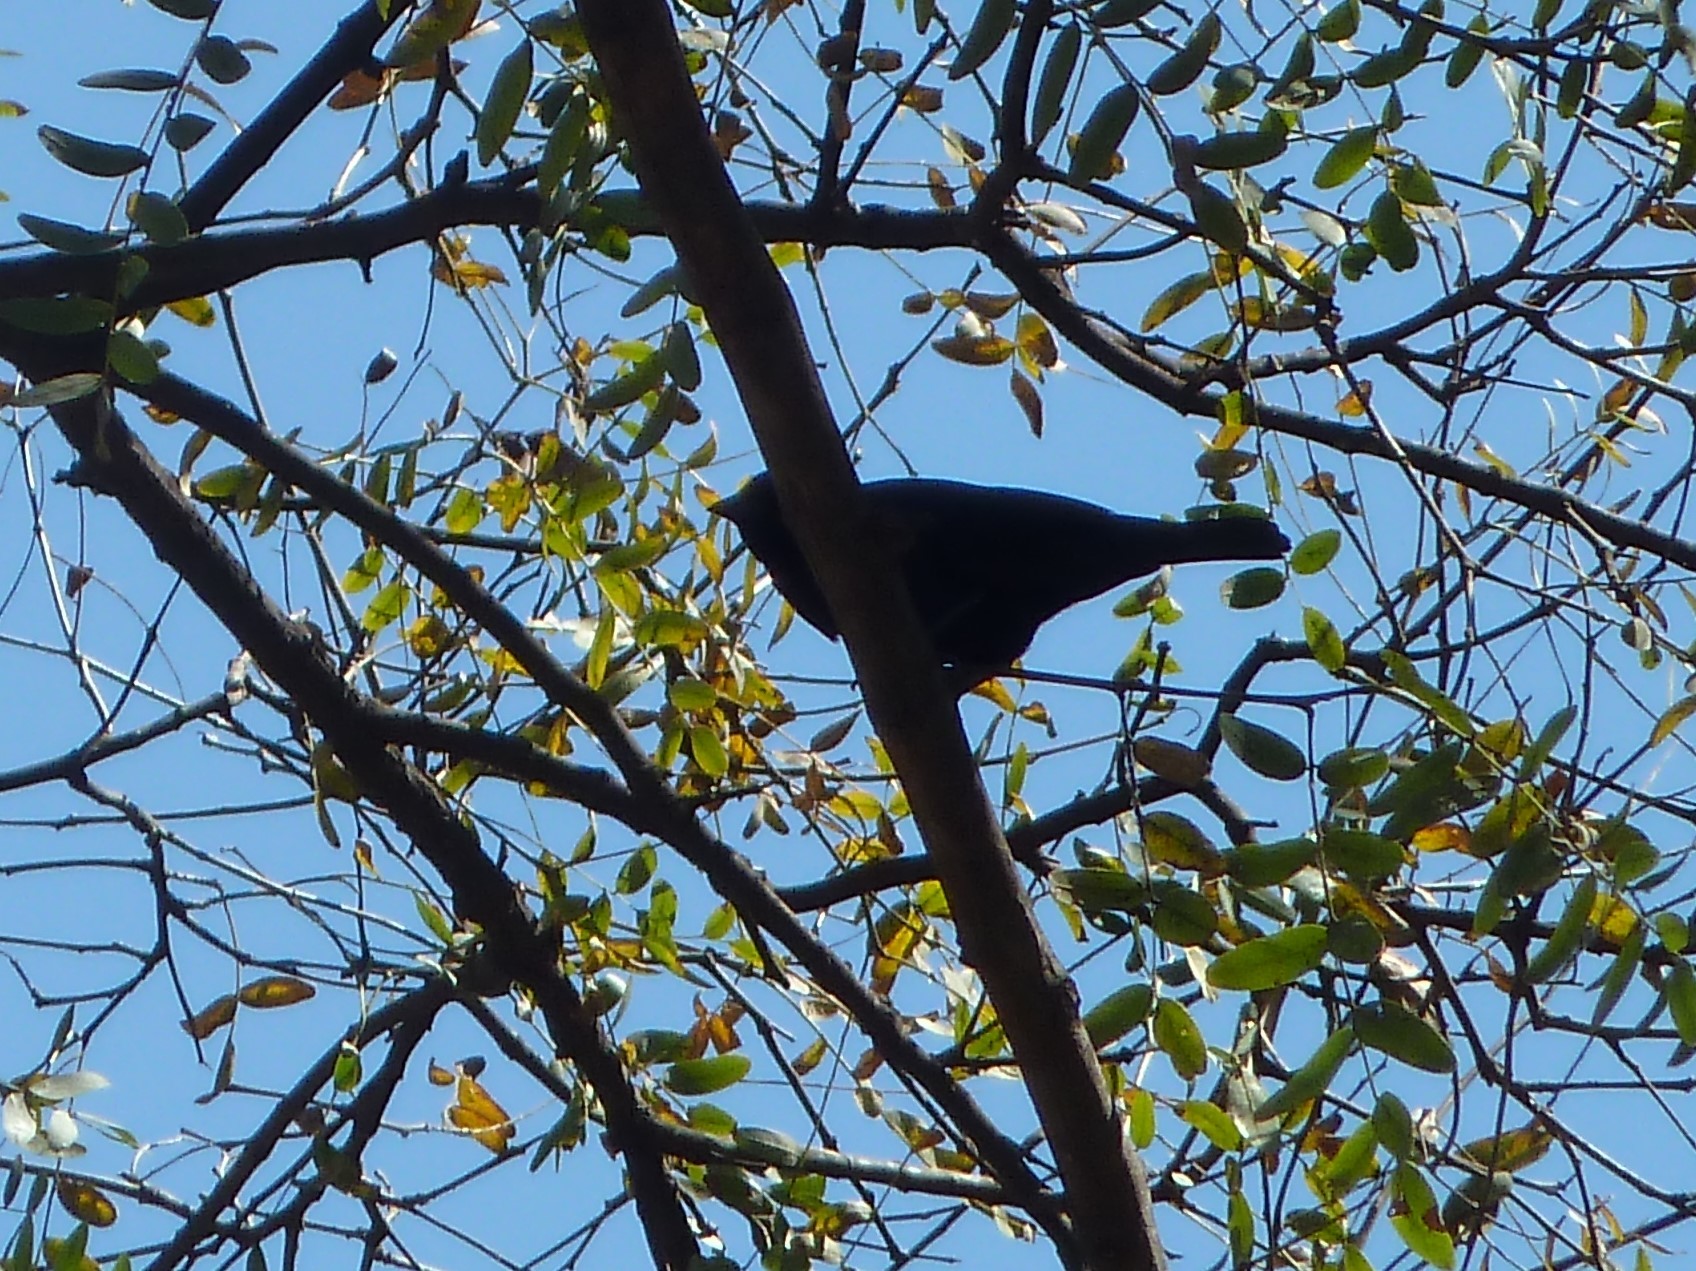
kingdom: Animalia
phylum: Chordata
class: Aves
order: Passeriformes
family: Icteridae
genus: Molothrus
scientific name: Molothrus bonariensis
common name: Shiny cowbird
